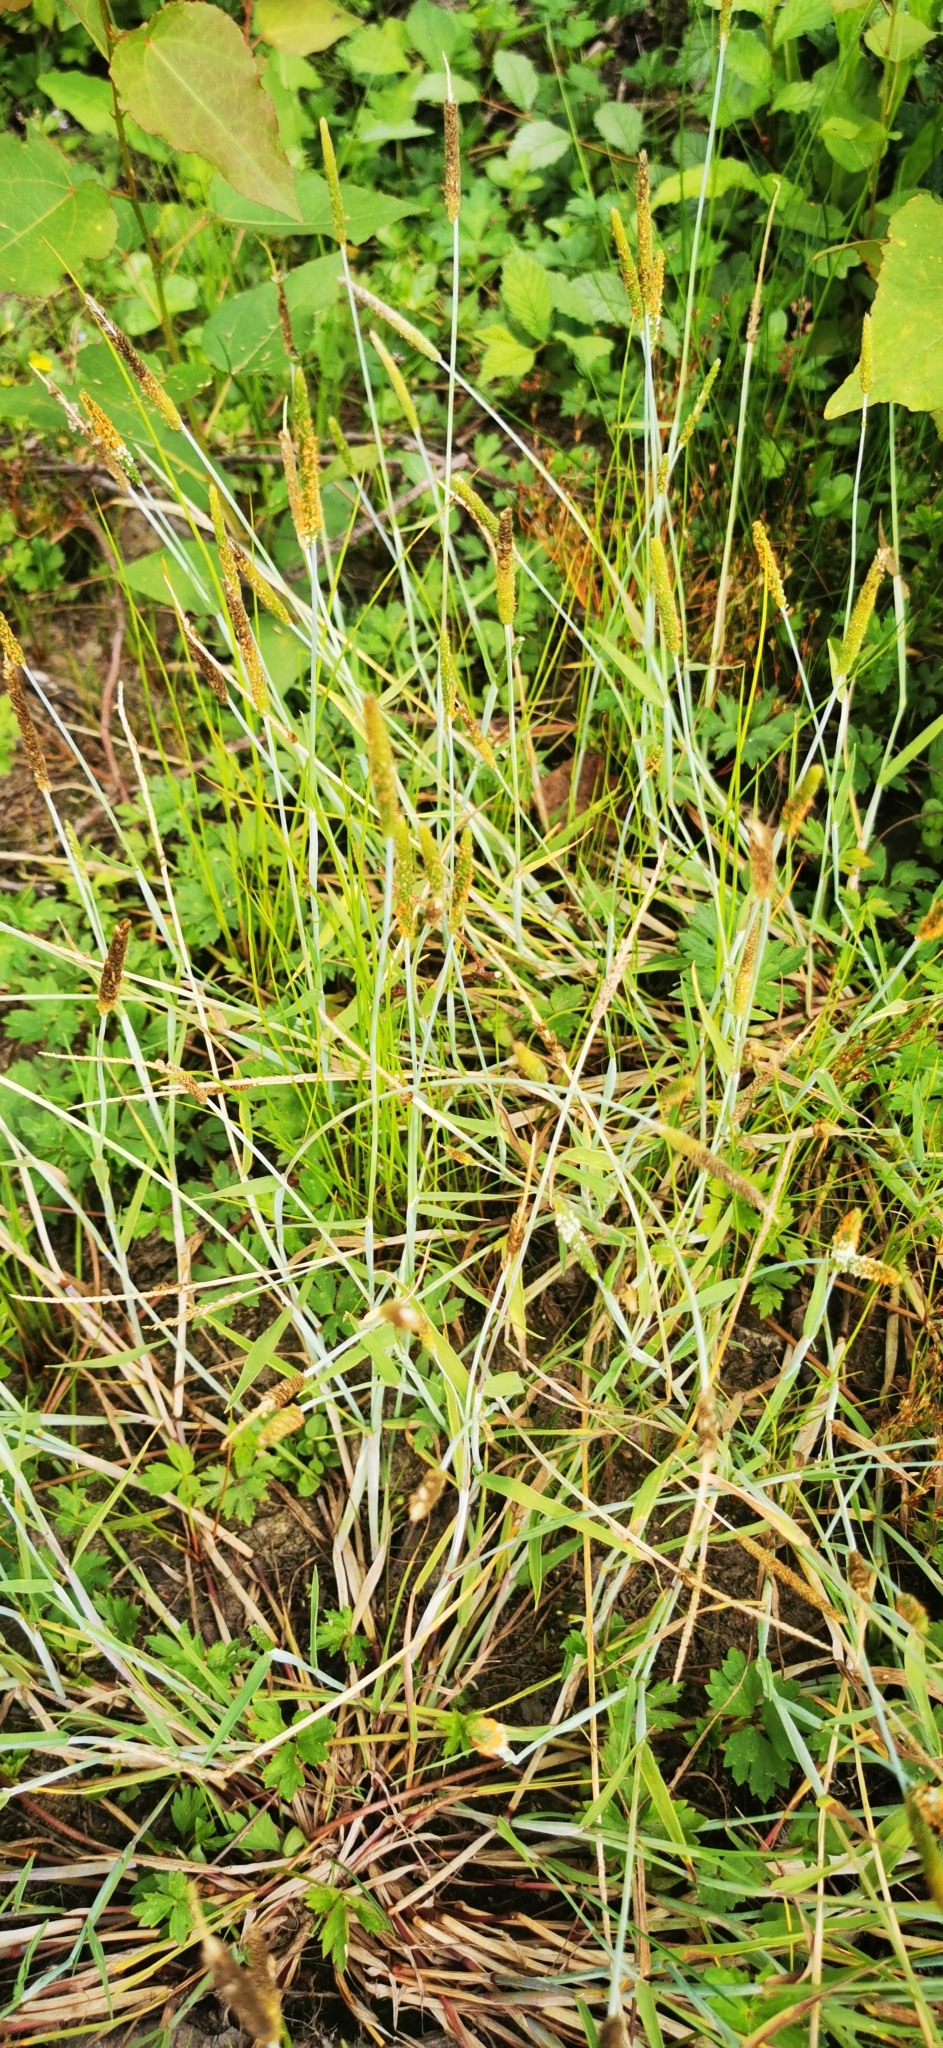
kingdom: Plantae
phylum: Tracheophyta
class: Liliopsida
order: Poales
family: Poaceae
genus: Alopecurus
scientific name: Alopecurus geniculatus
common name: Water foxtail
